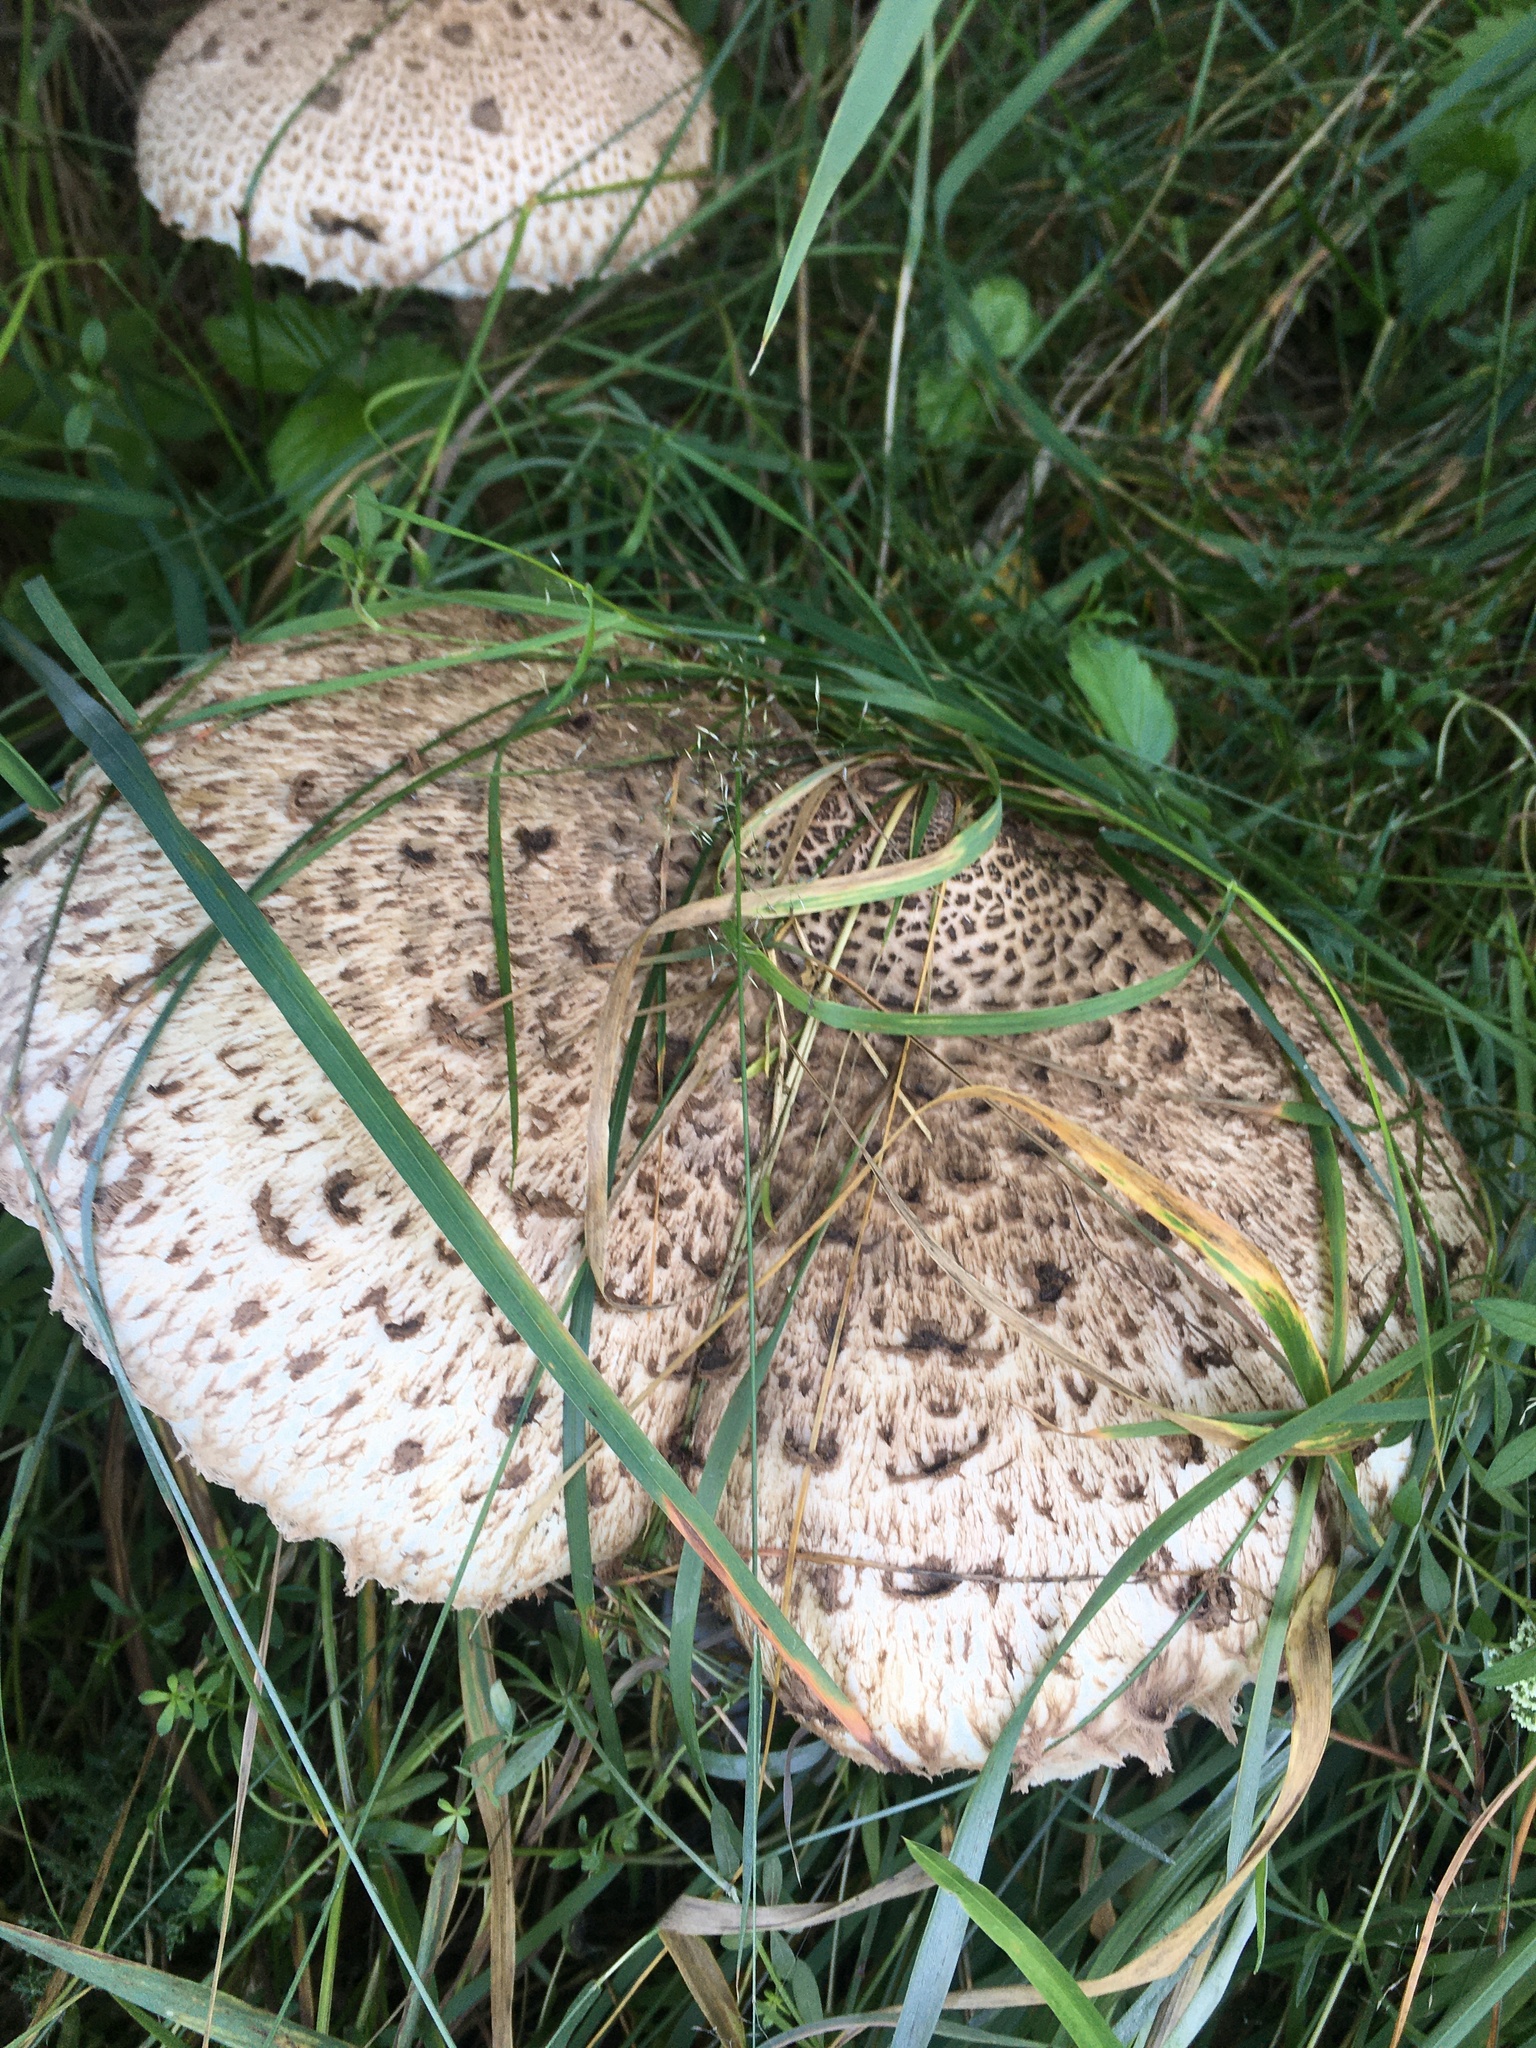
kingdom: Fungi
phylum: Basidiomycota
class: Agaricomycetes
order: Agaricales
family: Agaricaceae
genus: Macrolepiota
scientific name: Macrolepiota procera
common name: Parasol
